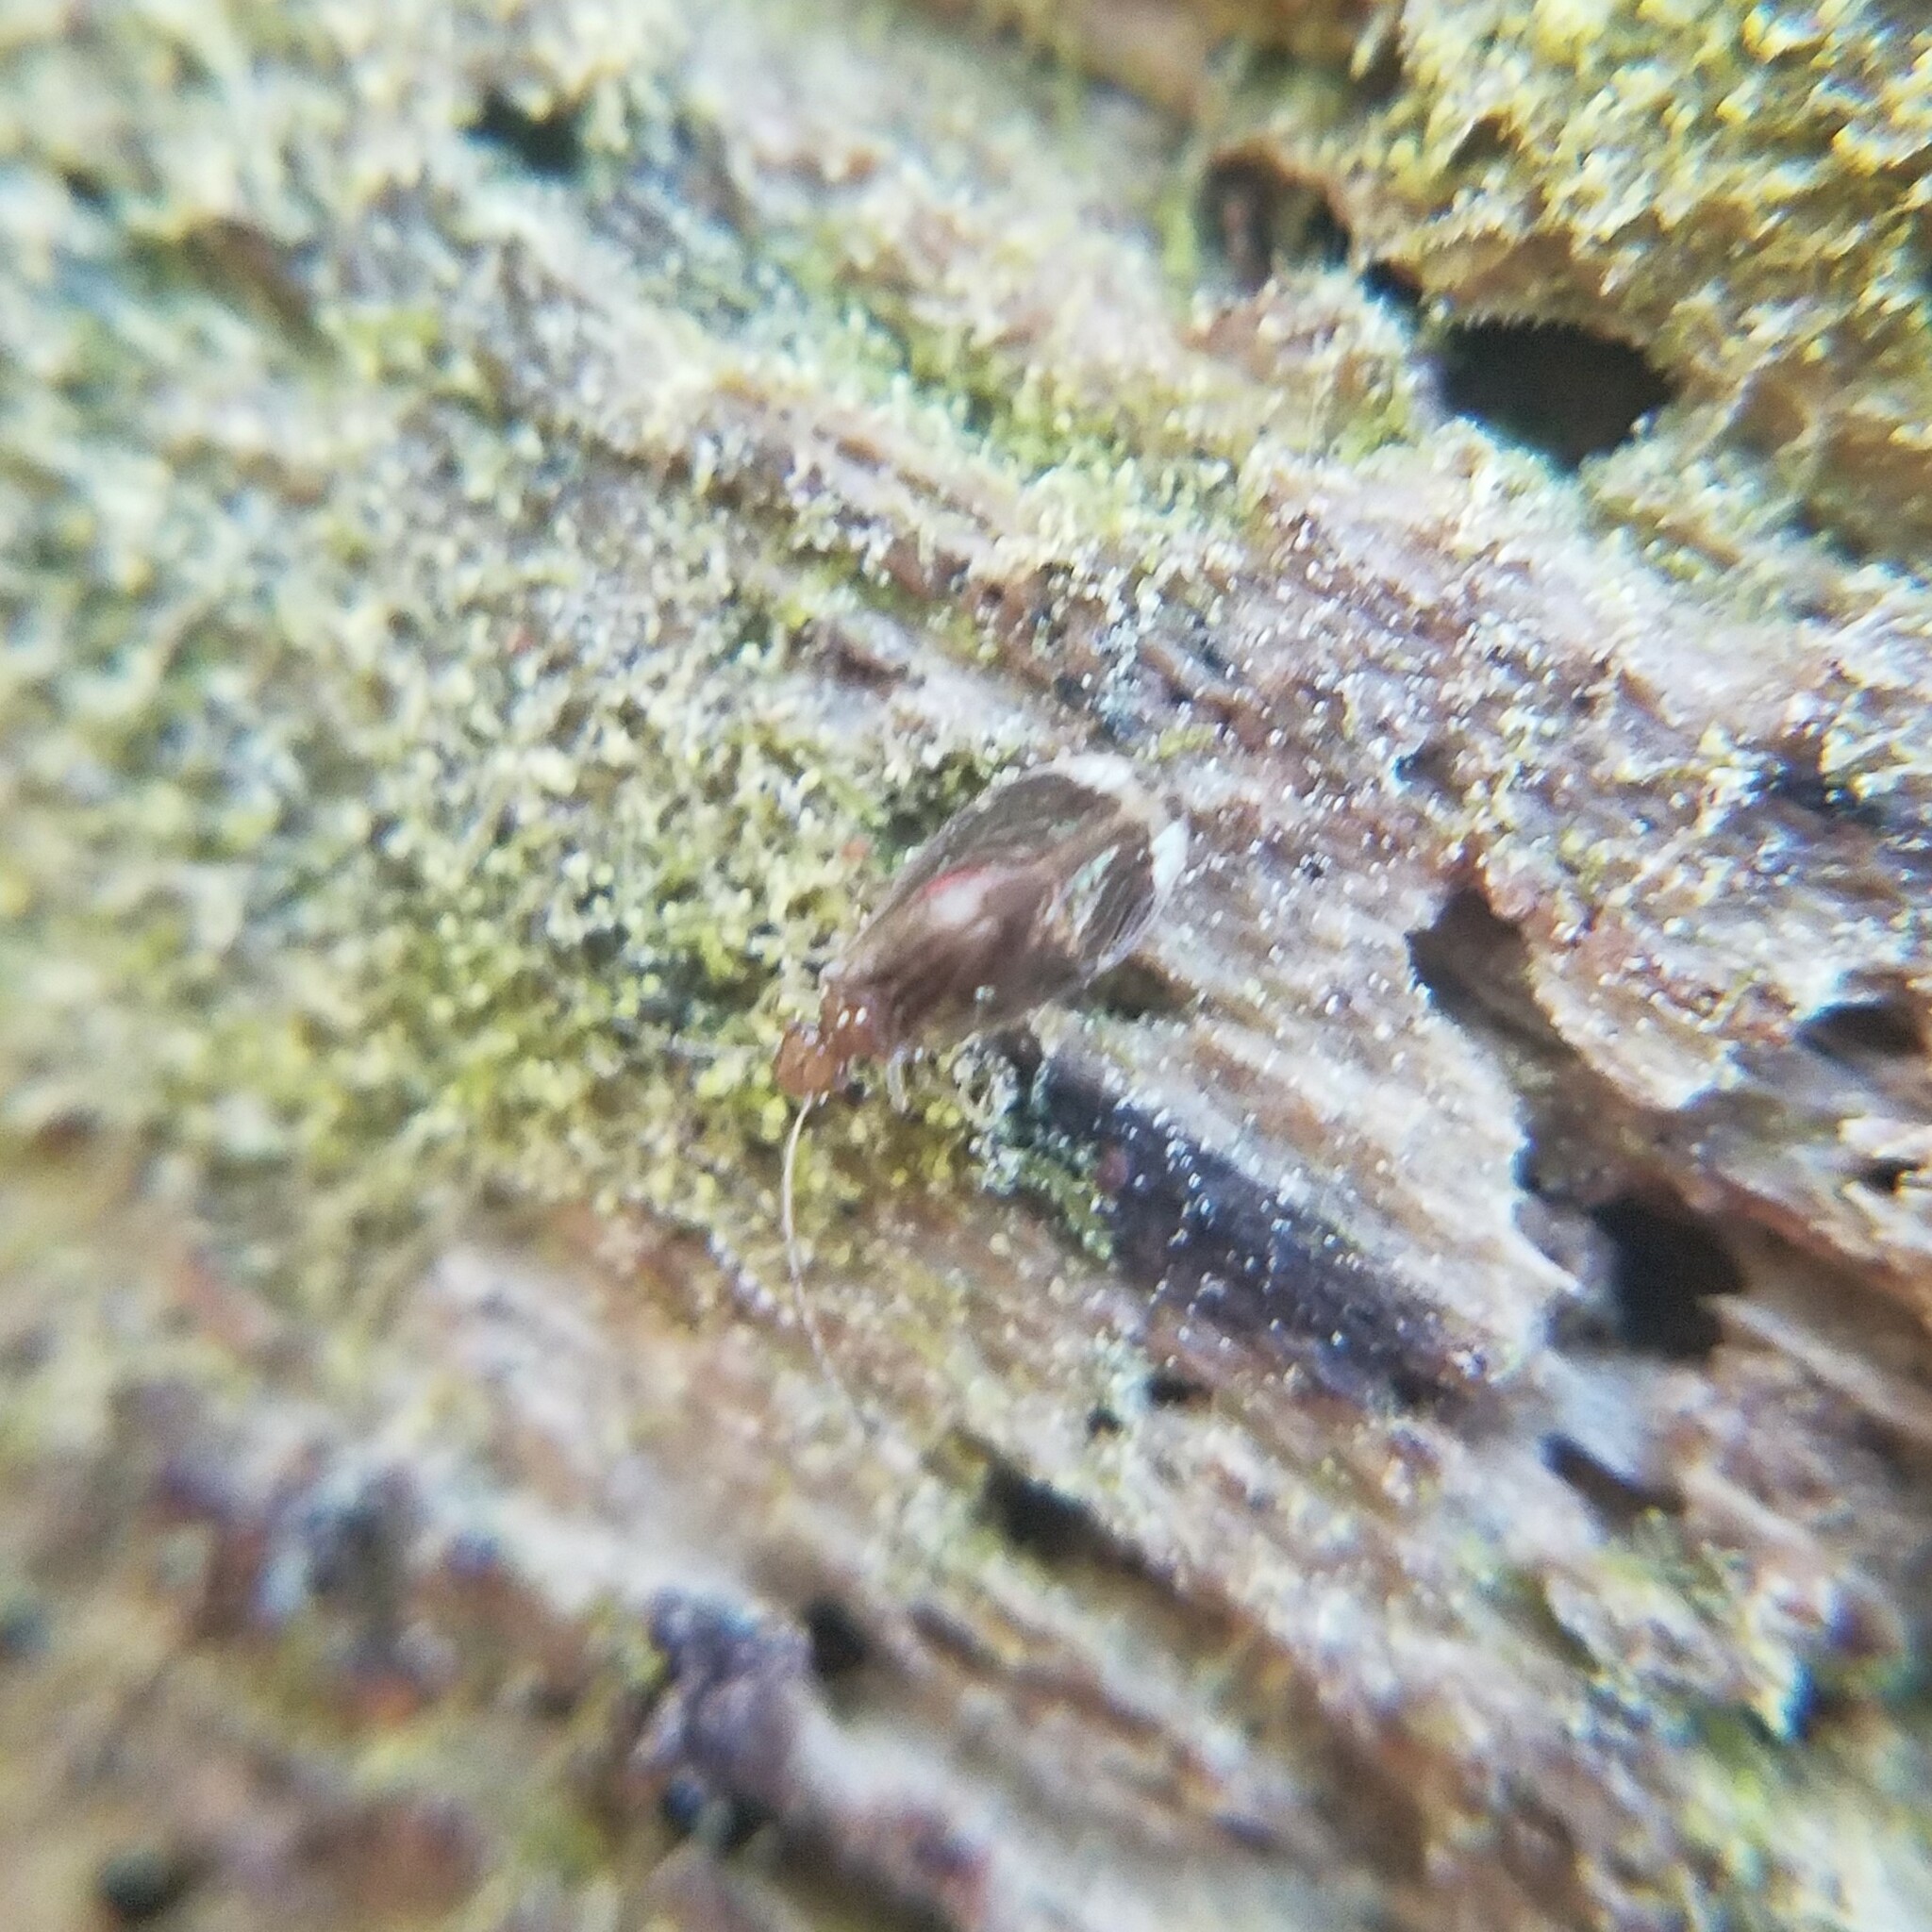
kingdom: Animalia
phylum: Arthropoda
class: Insecta
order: Psocodea
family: Amphipsocidae
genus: Polypsocus
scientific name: Polypsocus corruptus
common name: Corrupt barklouse
